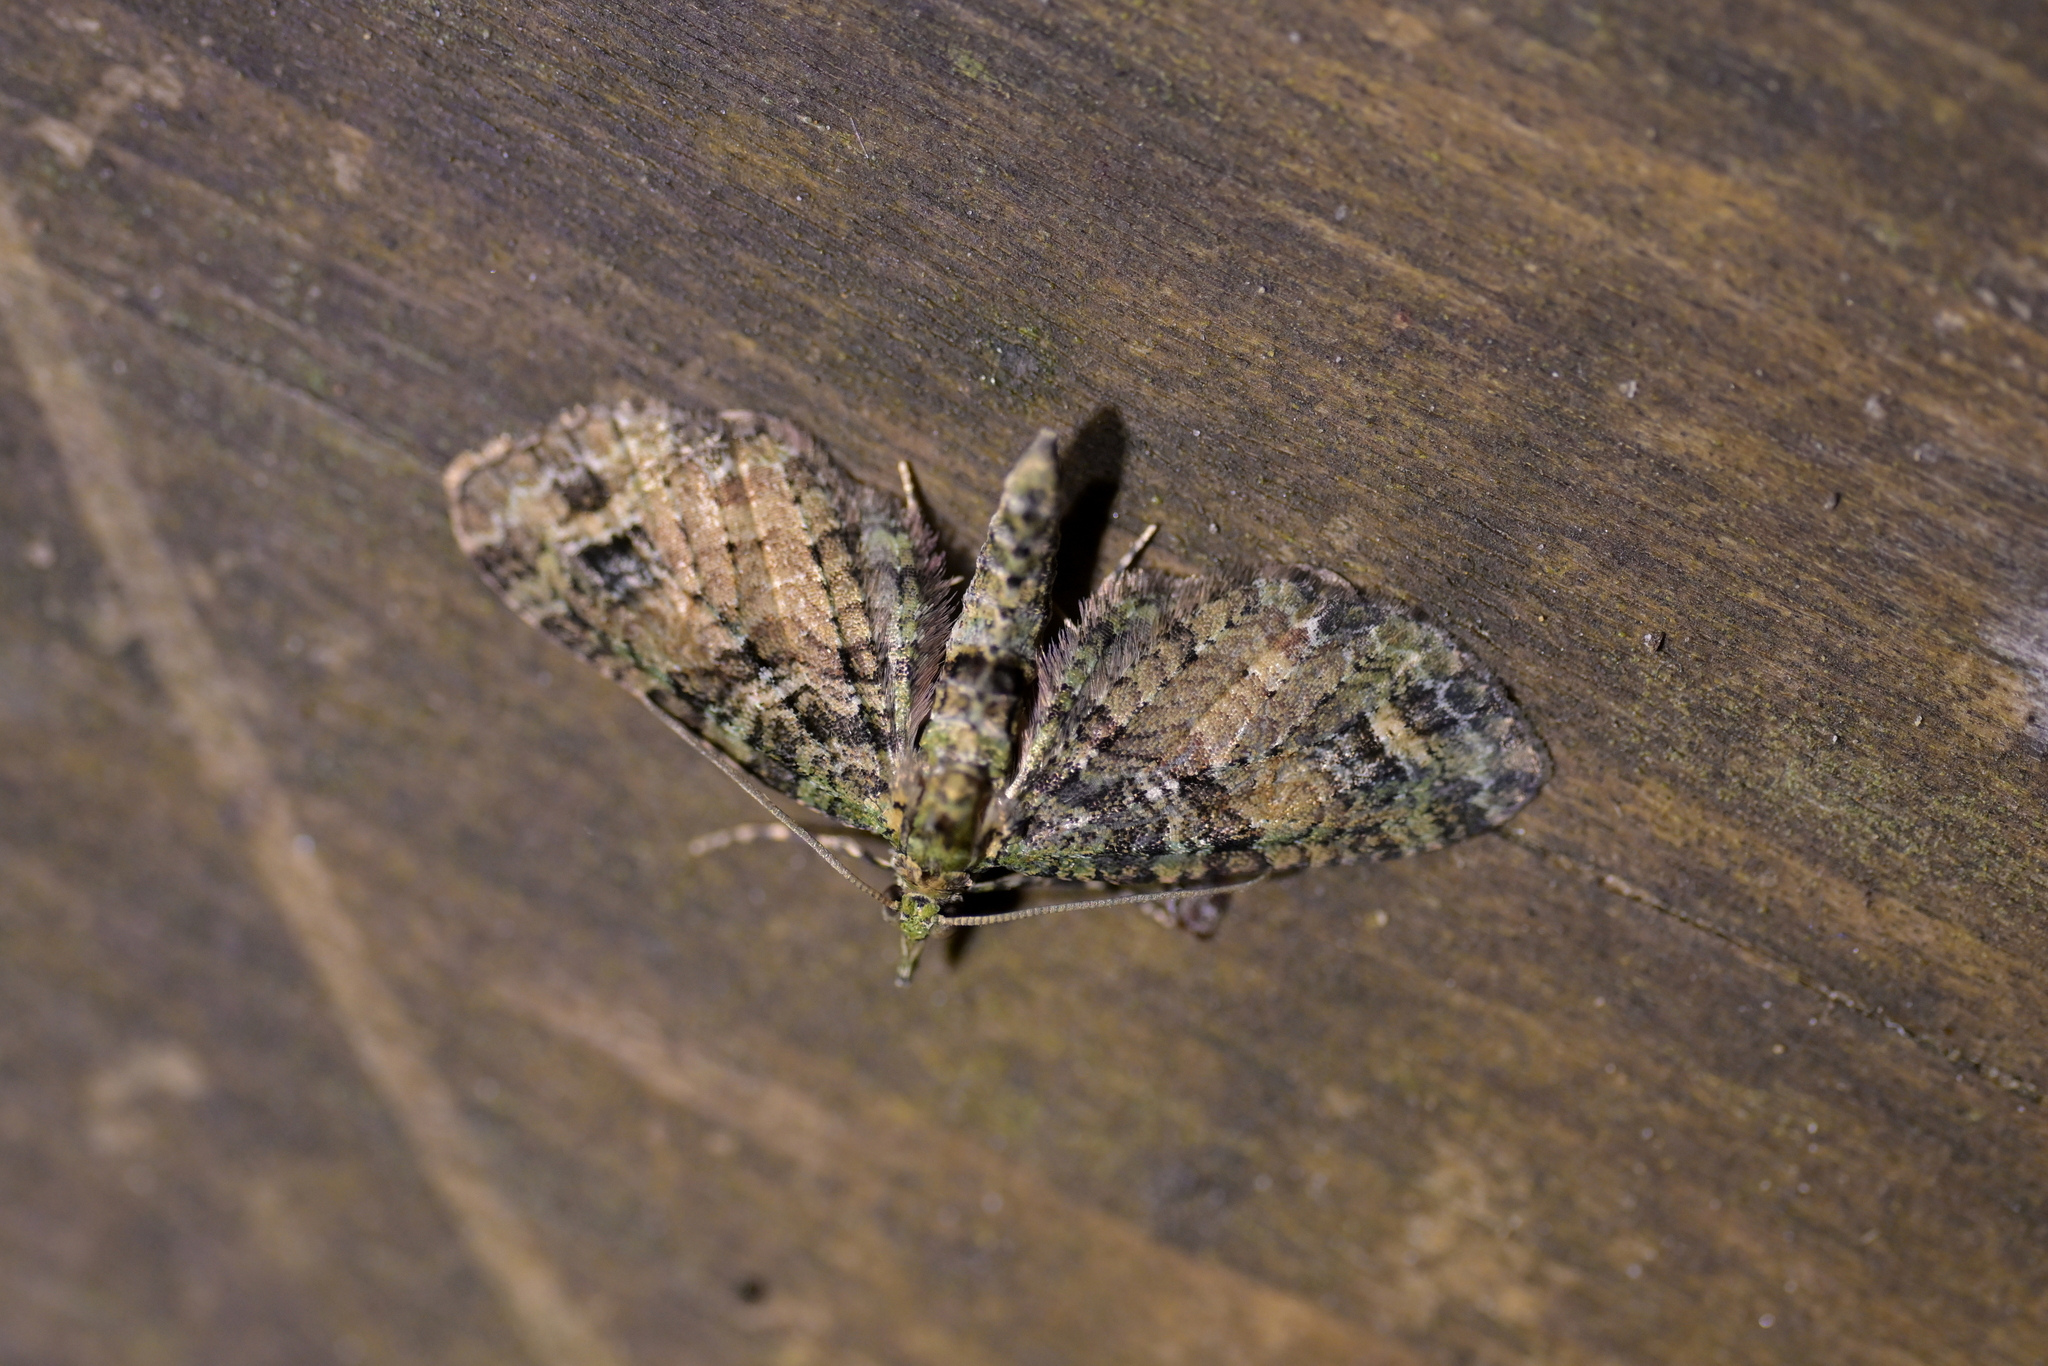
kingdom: Animalia
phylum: Arthropoda
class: Insecta
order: Lepidoptera
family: Geometridae
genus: Idaea
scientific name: Idaea mutanda
